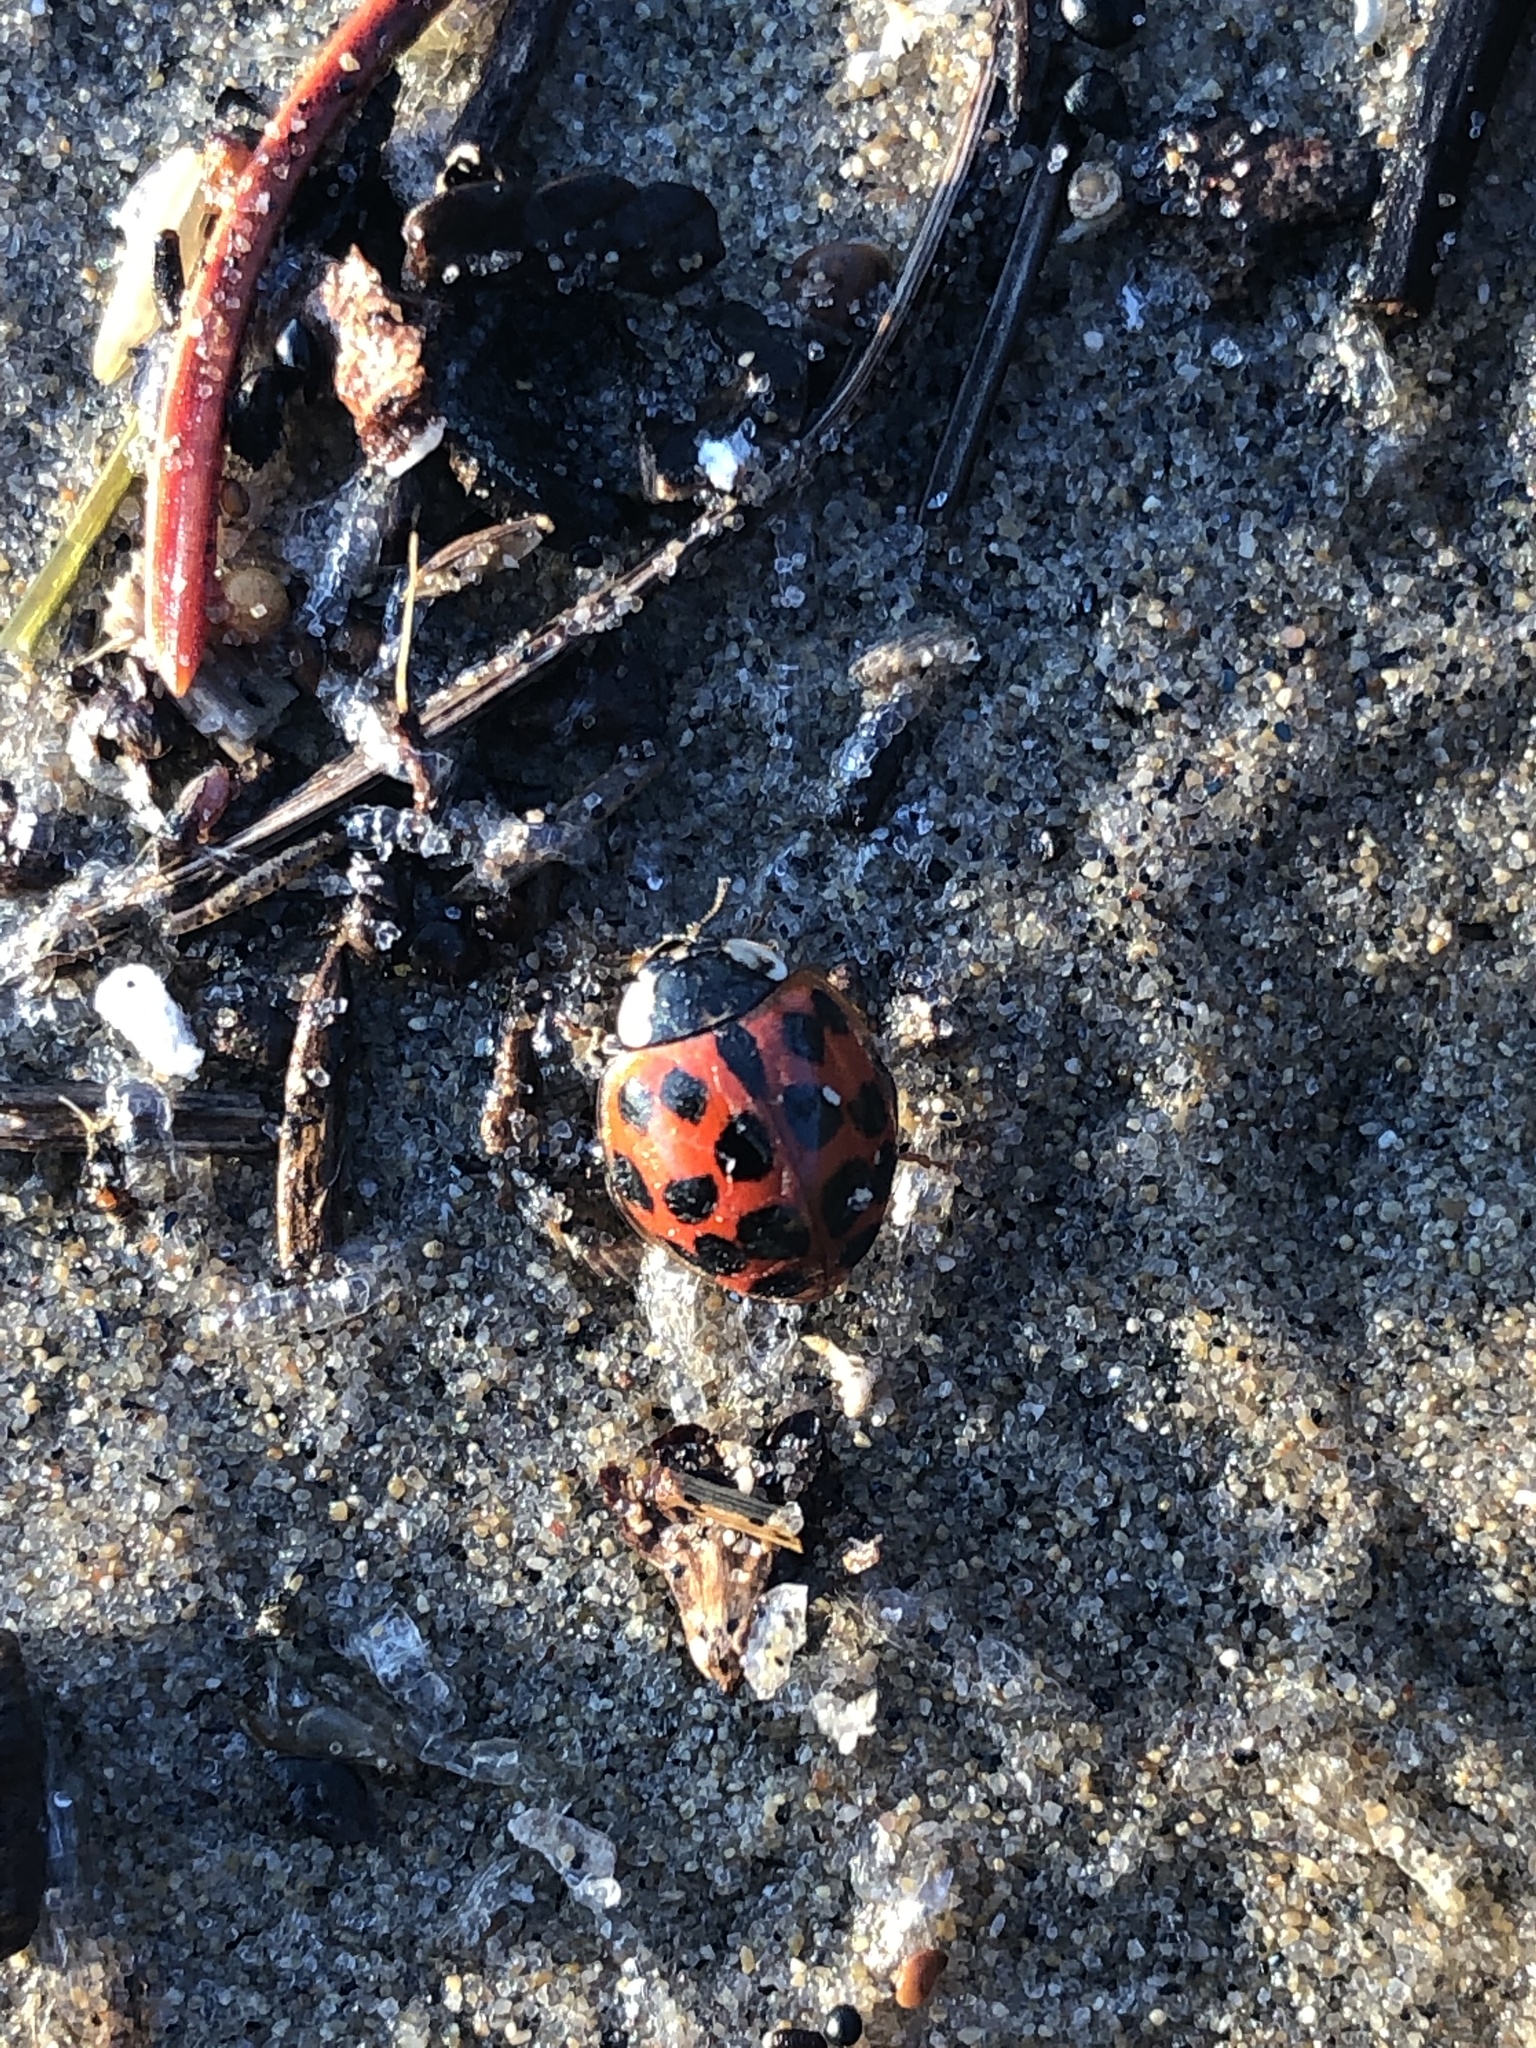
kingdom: Animalia
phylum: Arthropoda
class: Insecta
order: Coleoptera
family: Coccinellidae
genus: Harmonia
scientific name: Harmonia axyridis
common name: Harlequin ladybird
